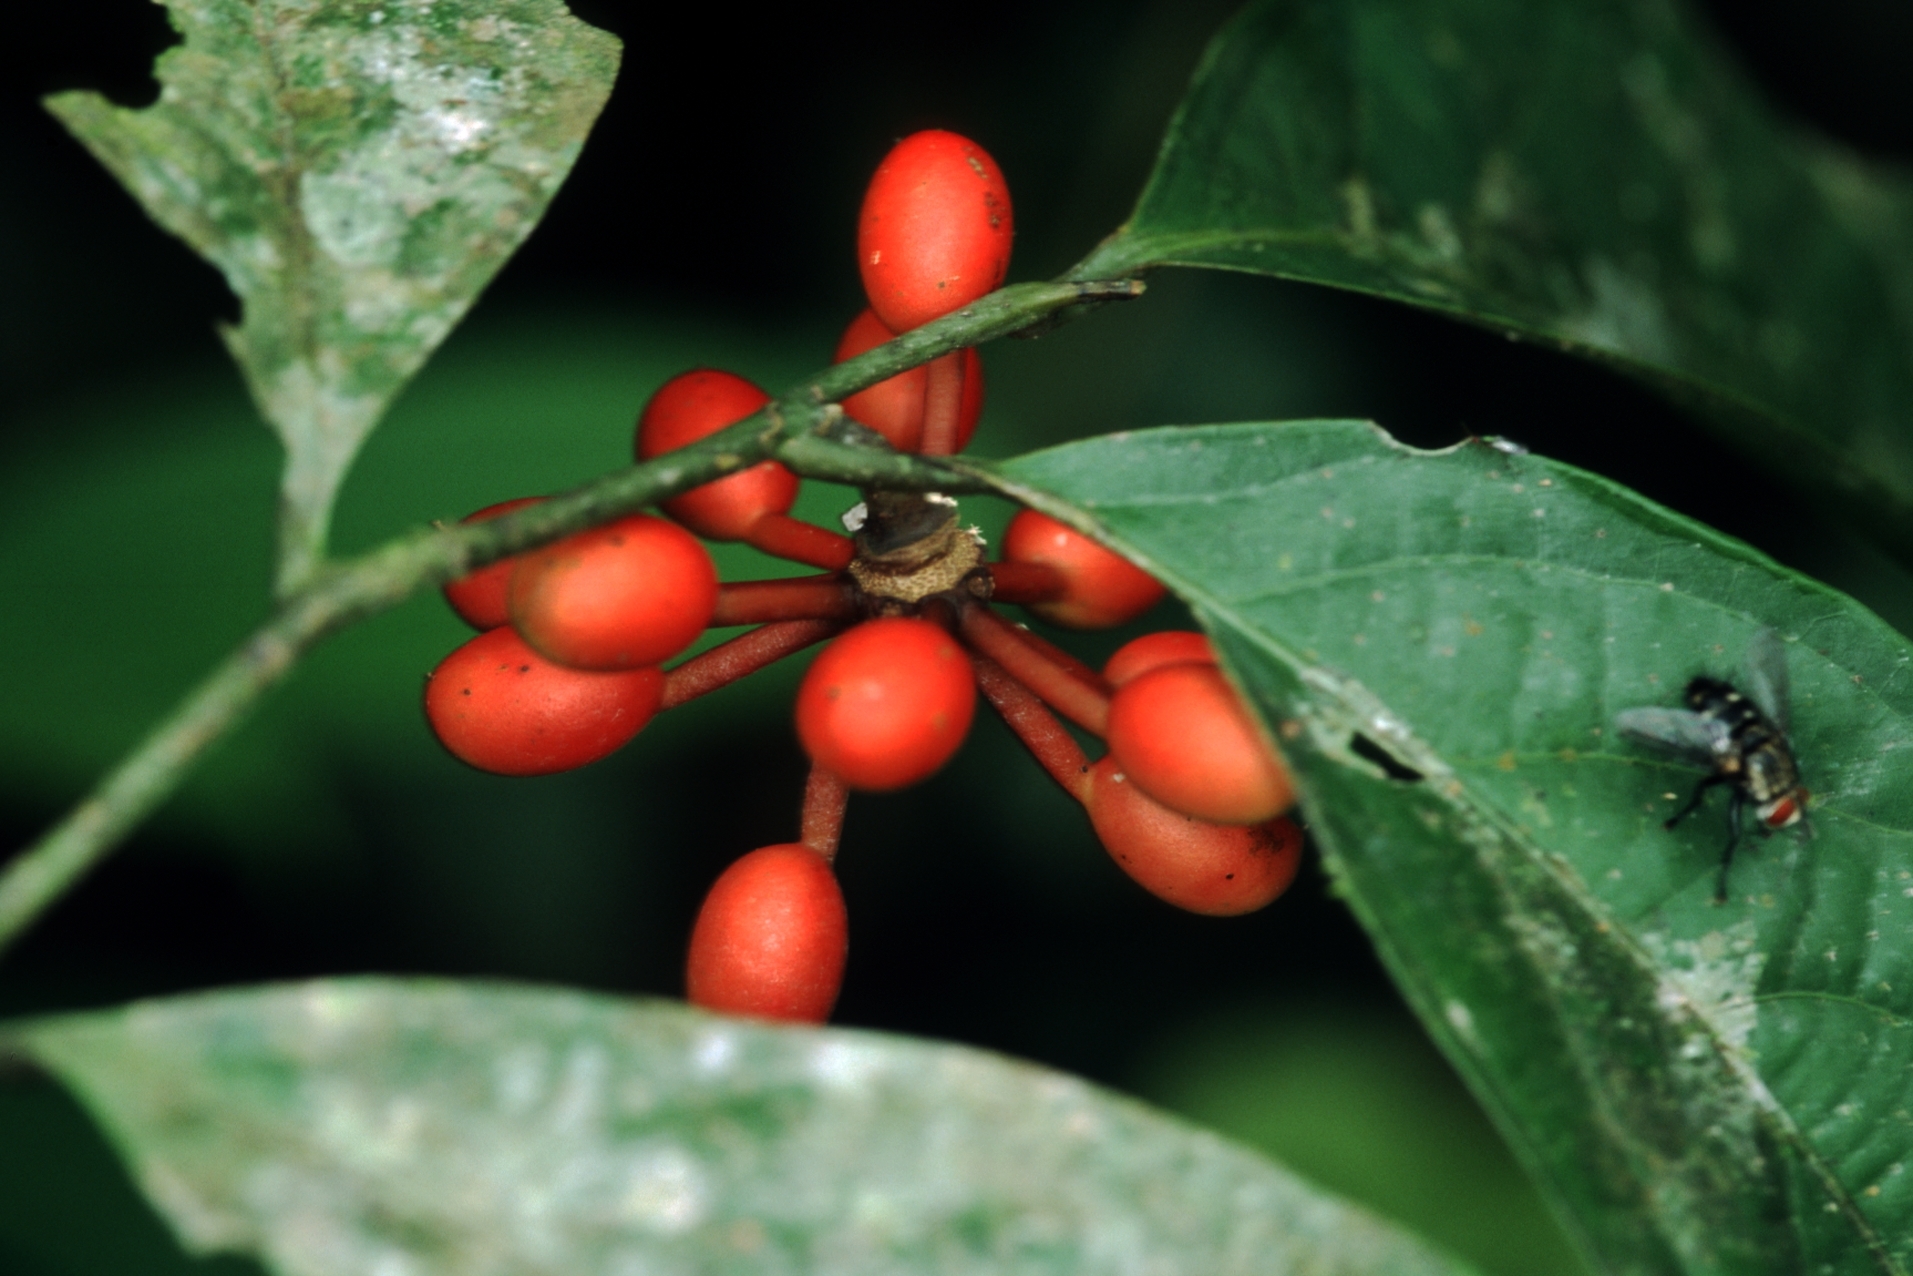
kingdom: Plantae
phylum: Tracheophyta
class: Magnoliopsida
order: Magnoliales
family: Annonaceae
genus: Cremastosperma
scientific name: Cremastosperma yamayakatense
